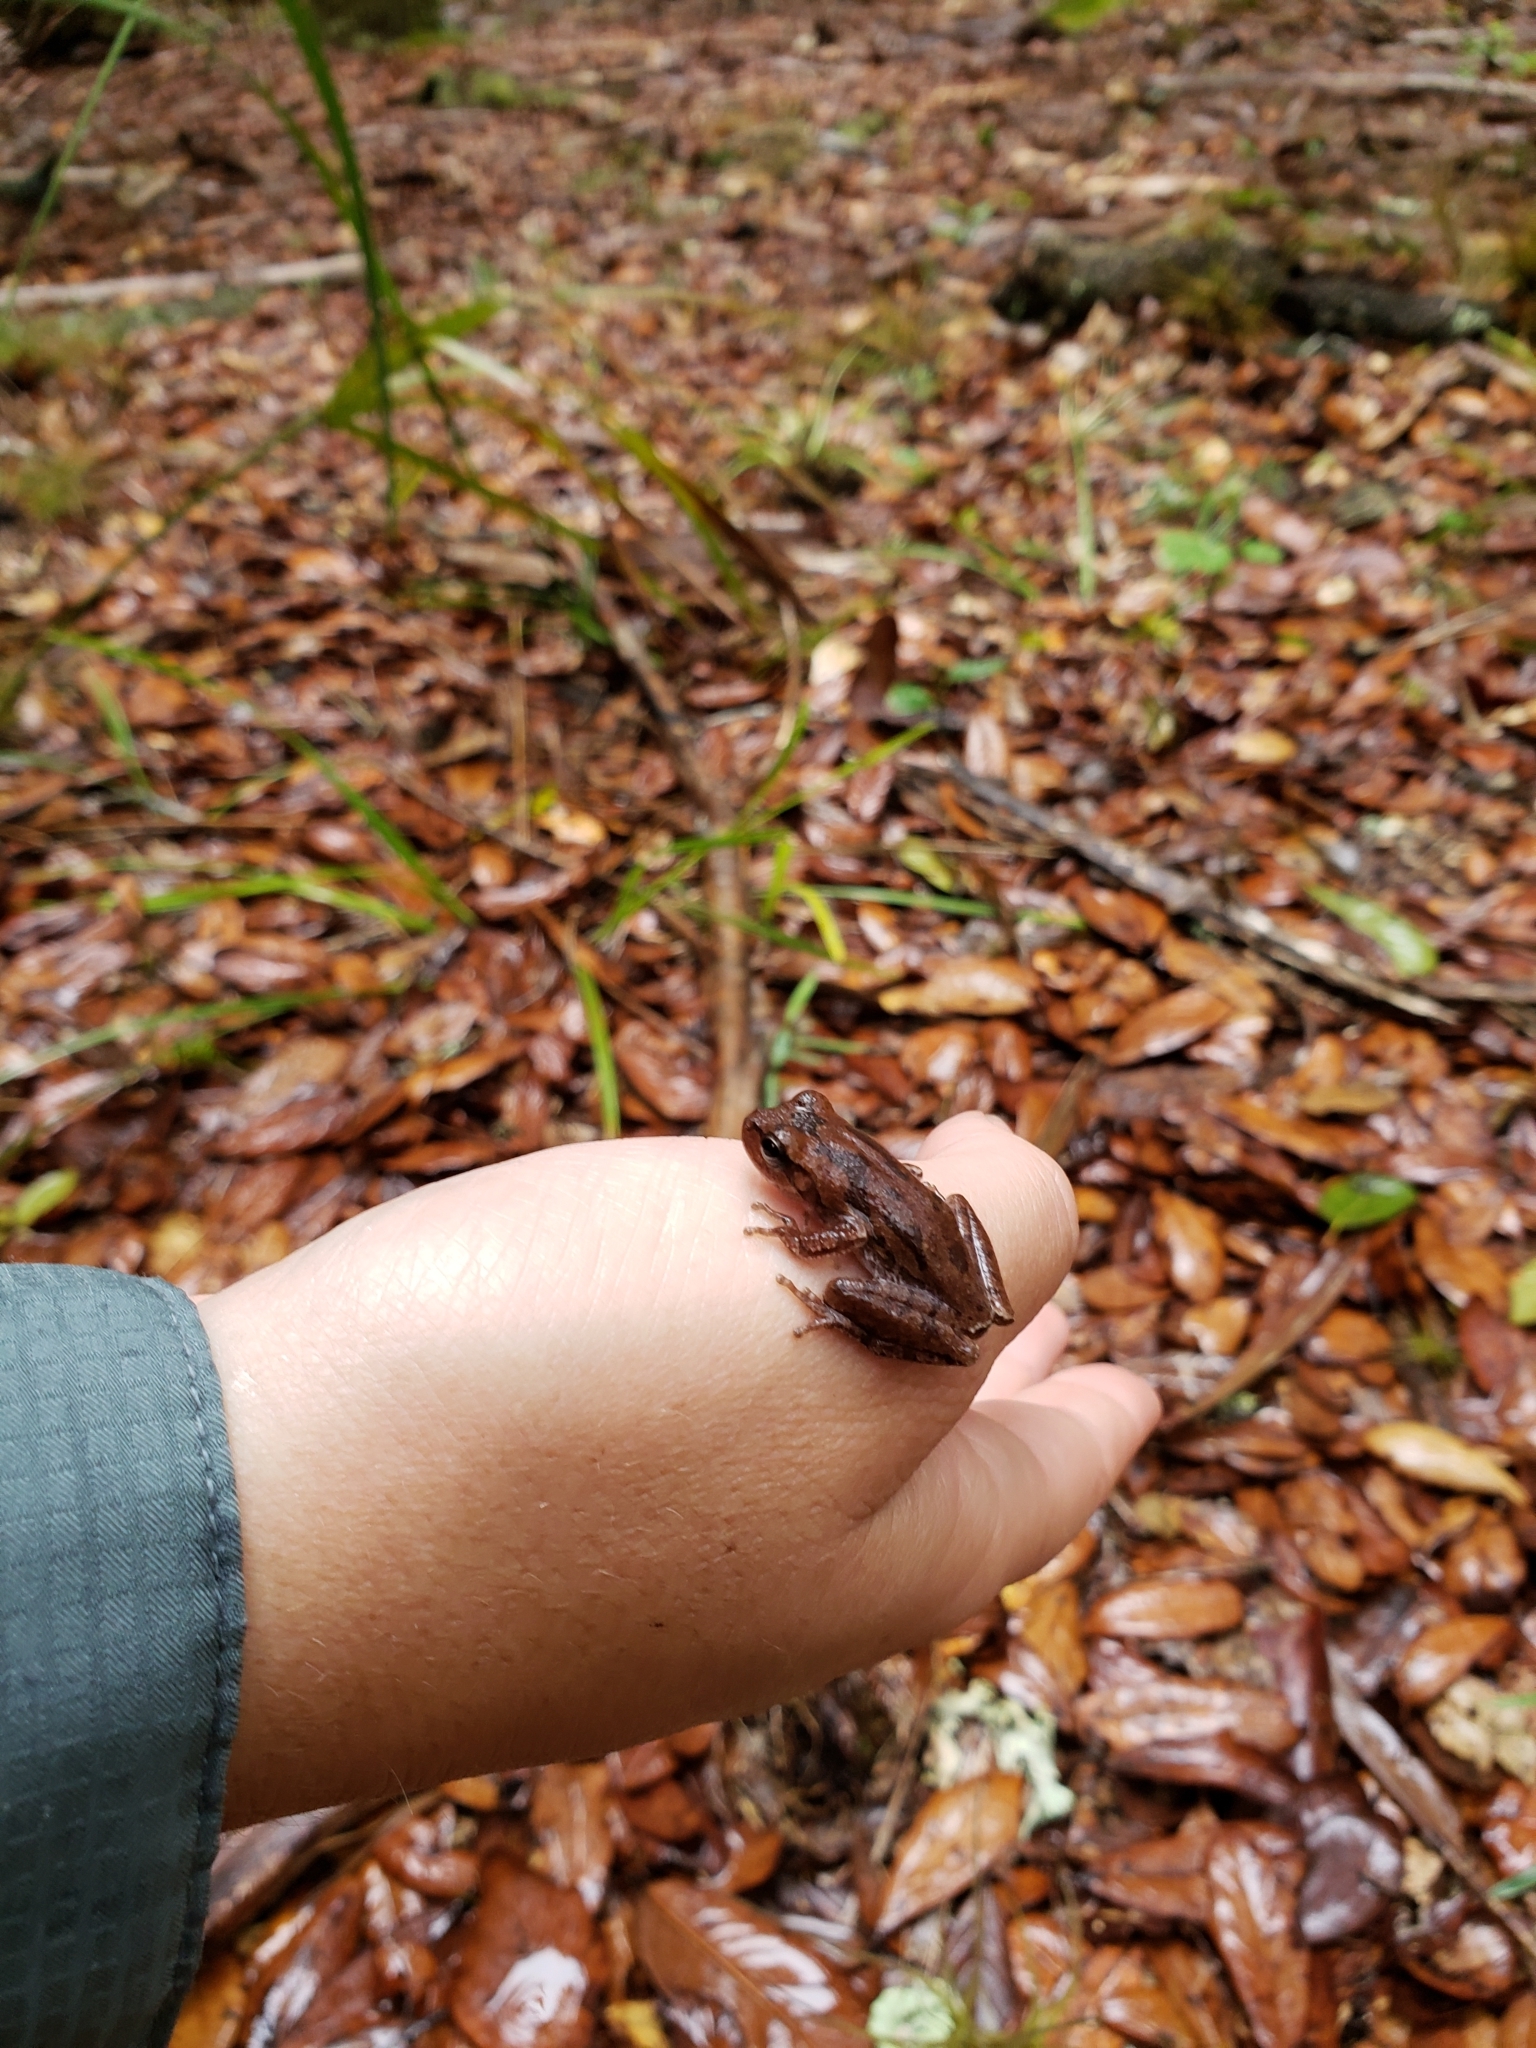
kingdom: Animalia
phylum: Chordata
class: Amphibia
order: Anura
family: Hylidae
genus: Hyla
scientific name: Hyla femoralis
